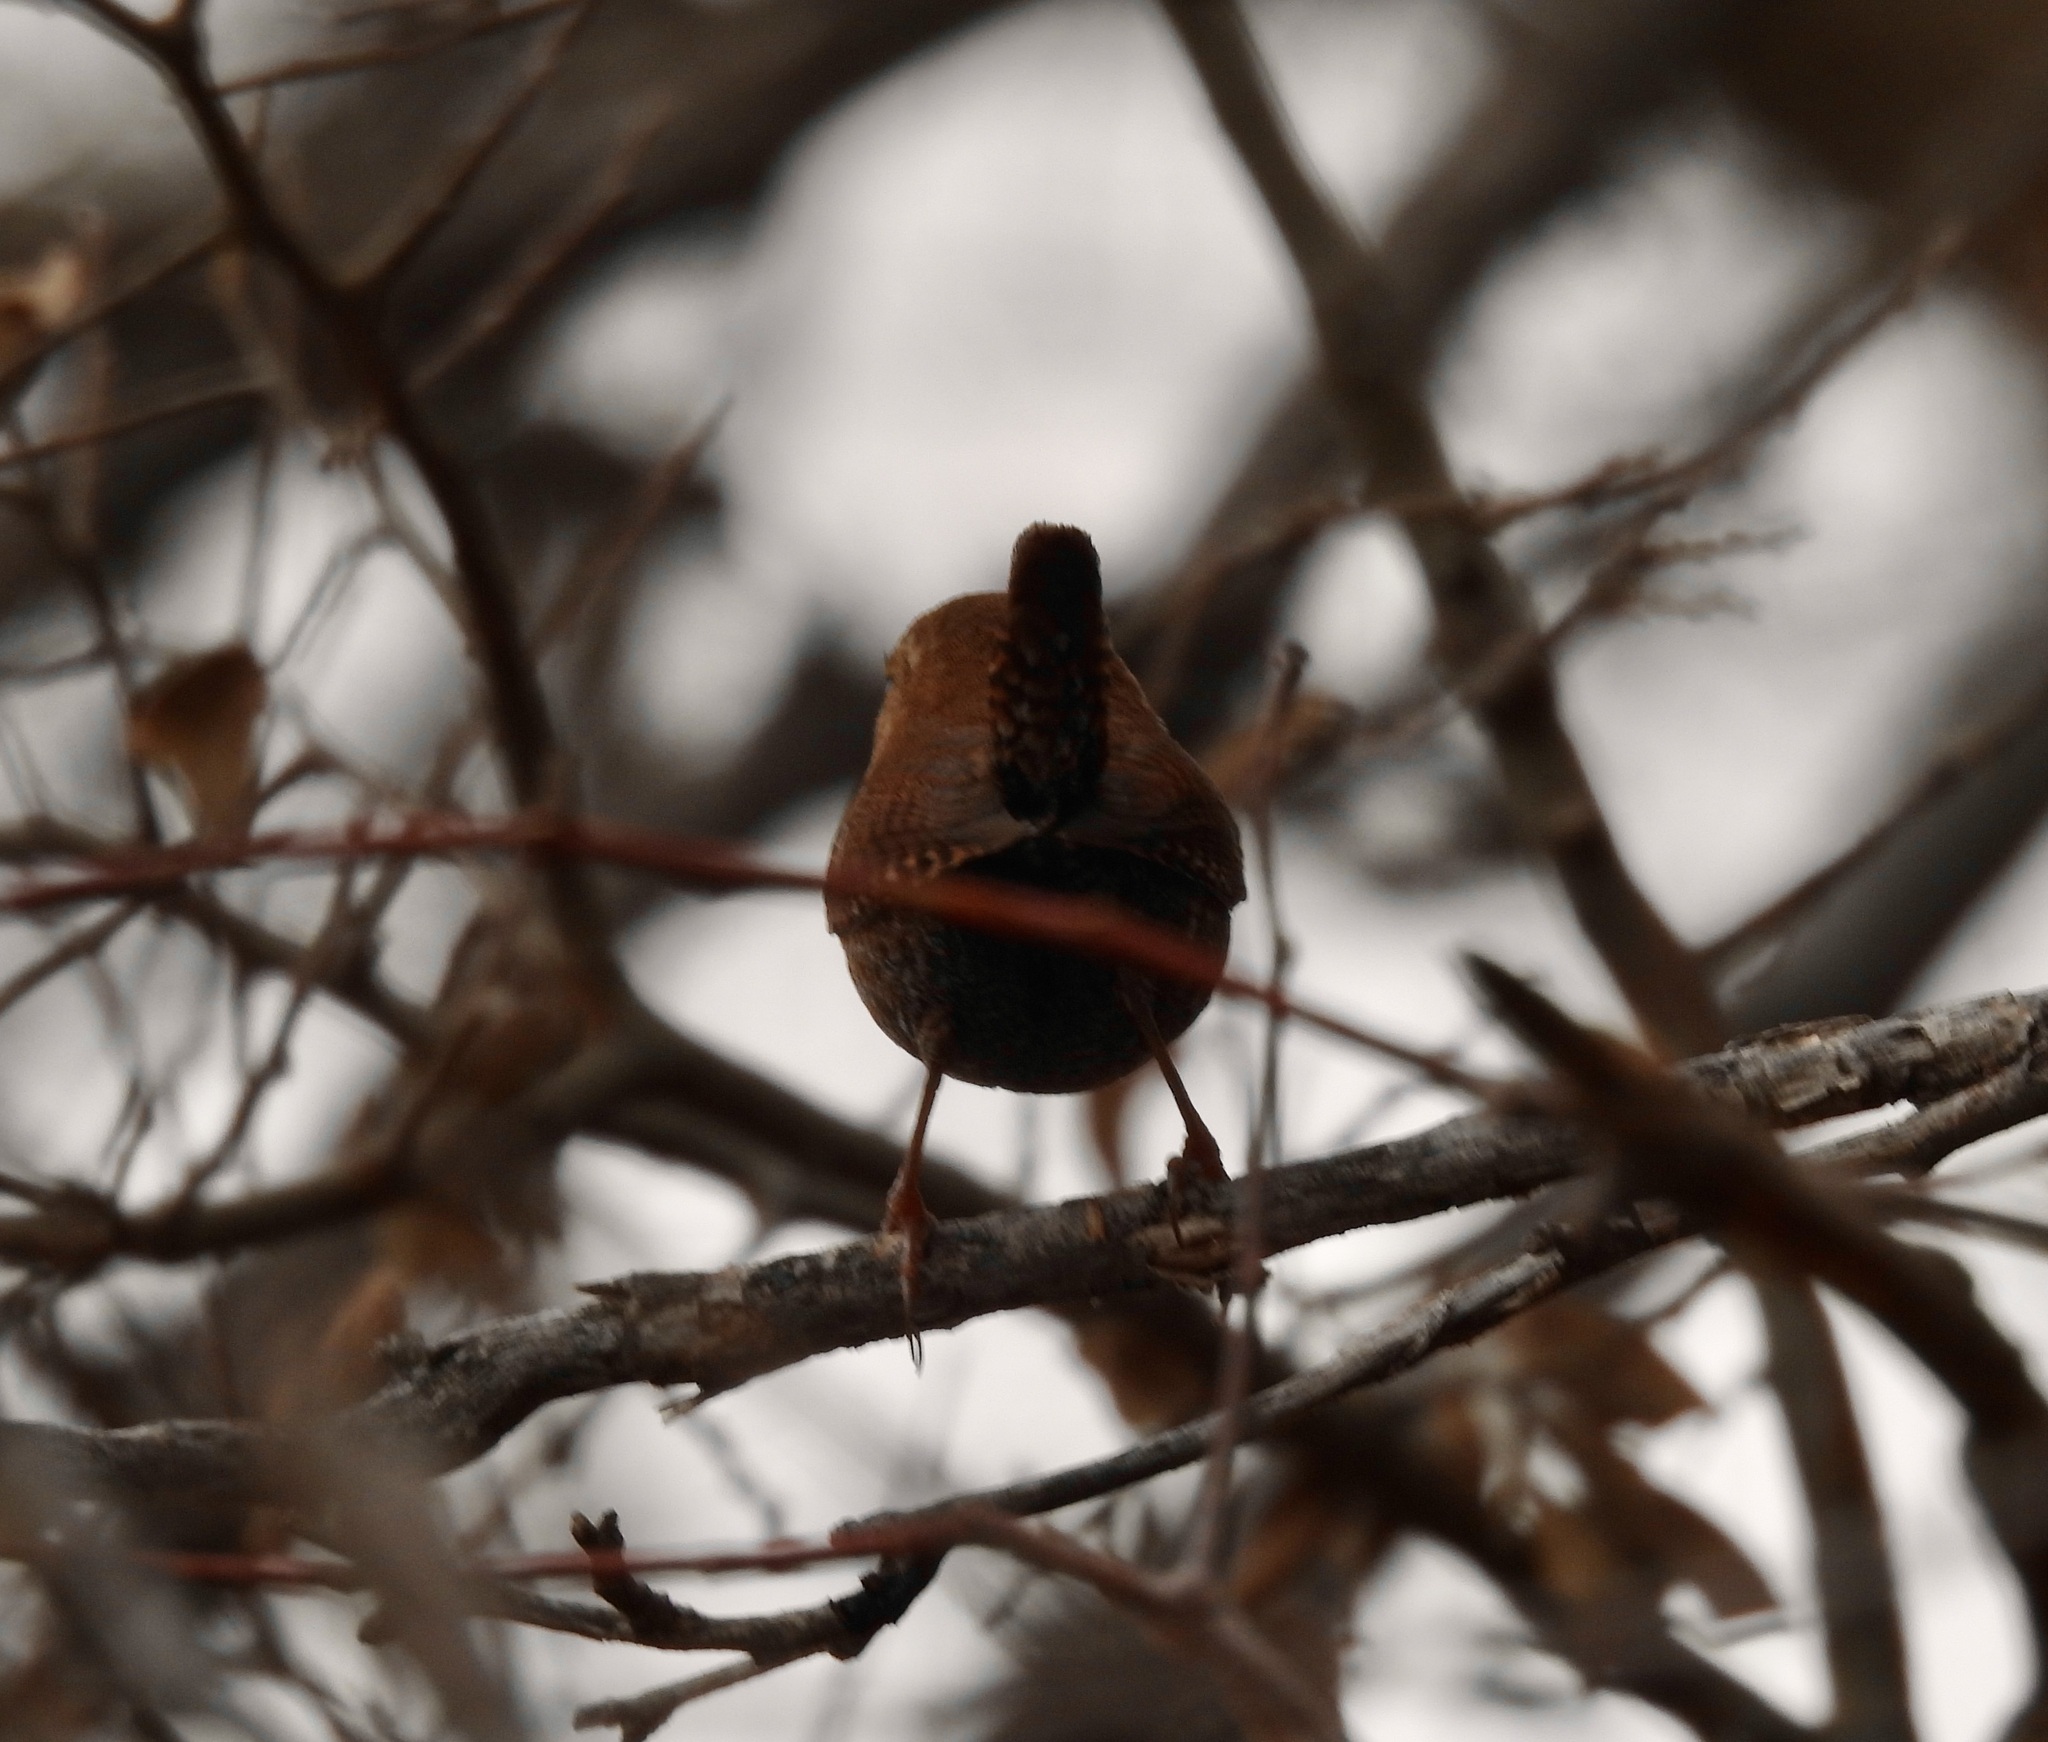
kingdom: Animalia
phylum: Chordata
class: Aves
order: Passeriformes
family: Troglodytidae
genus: Troglodytes
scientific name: Troglodytes hiemalis
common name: Winter wren
